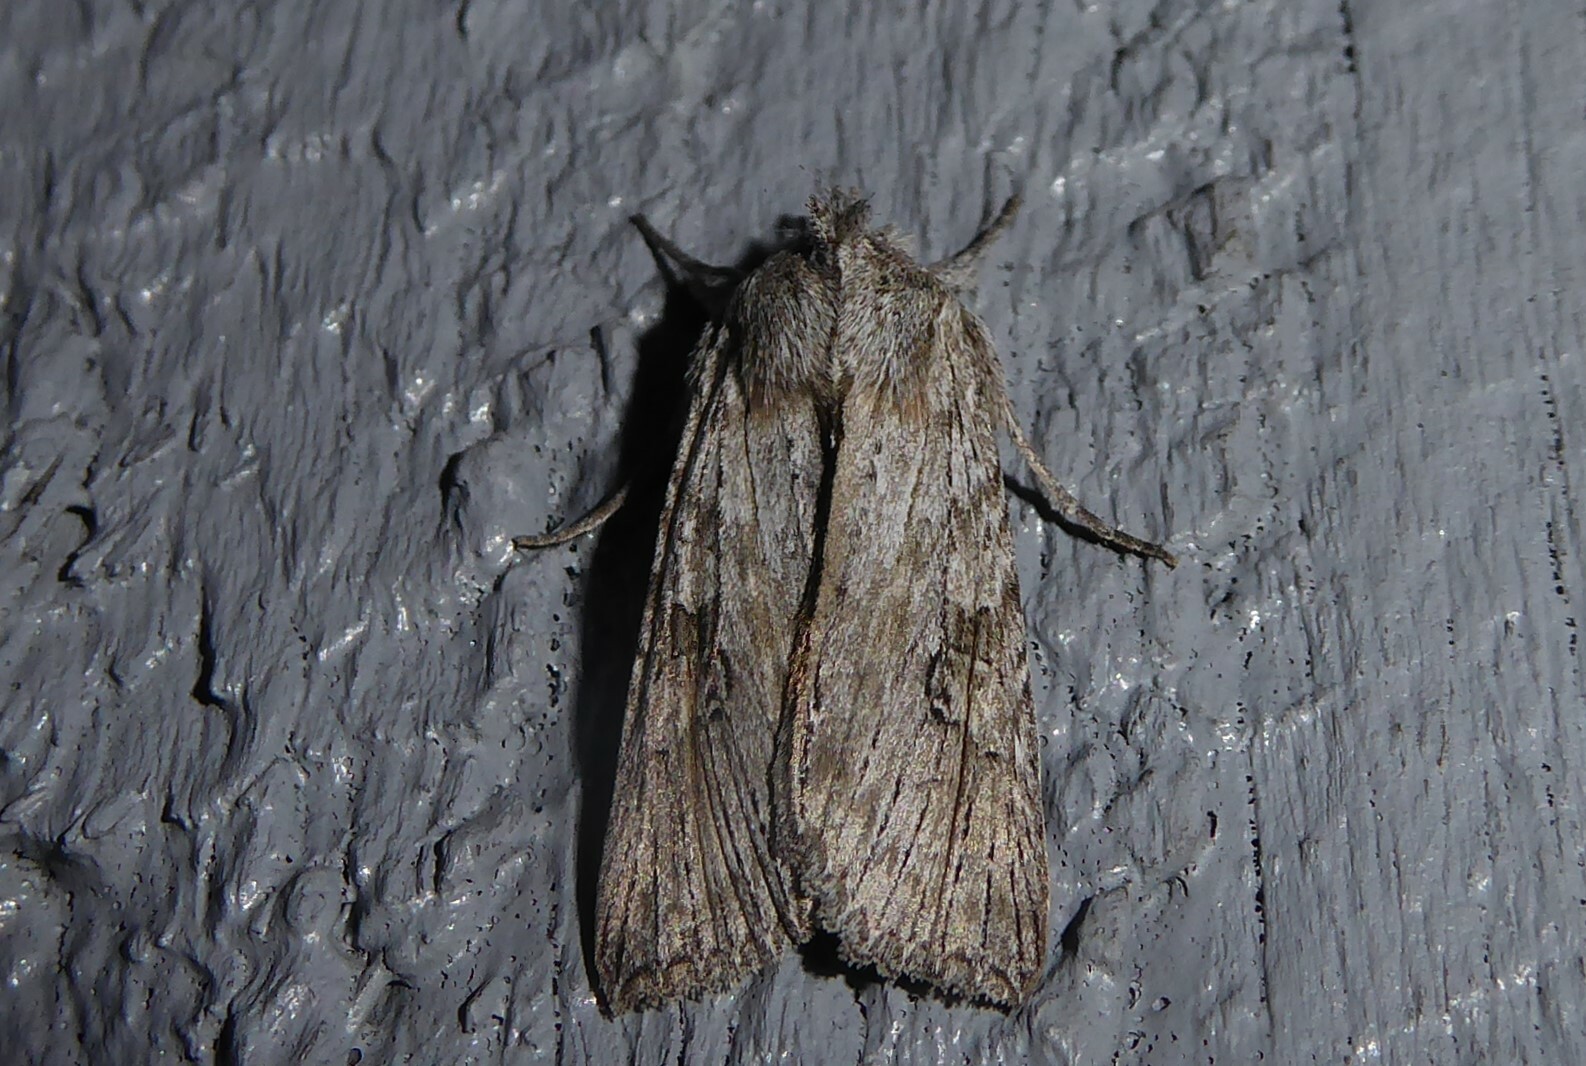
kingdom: Animalia
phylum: Arthropoda
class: Insecta
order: Lepidoptera
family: Noctuidae
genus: Physetica
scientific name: Physetica phricias
